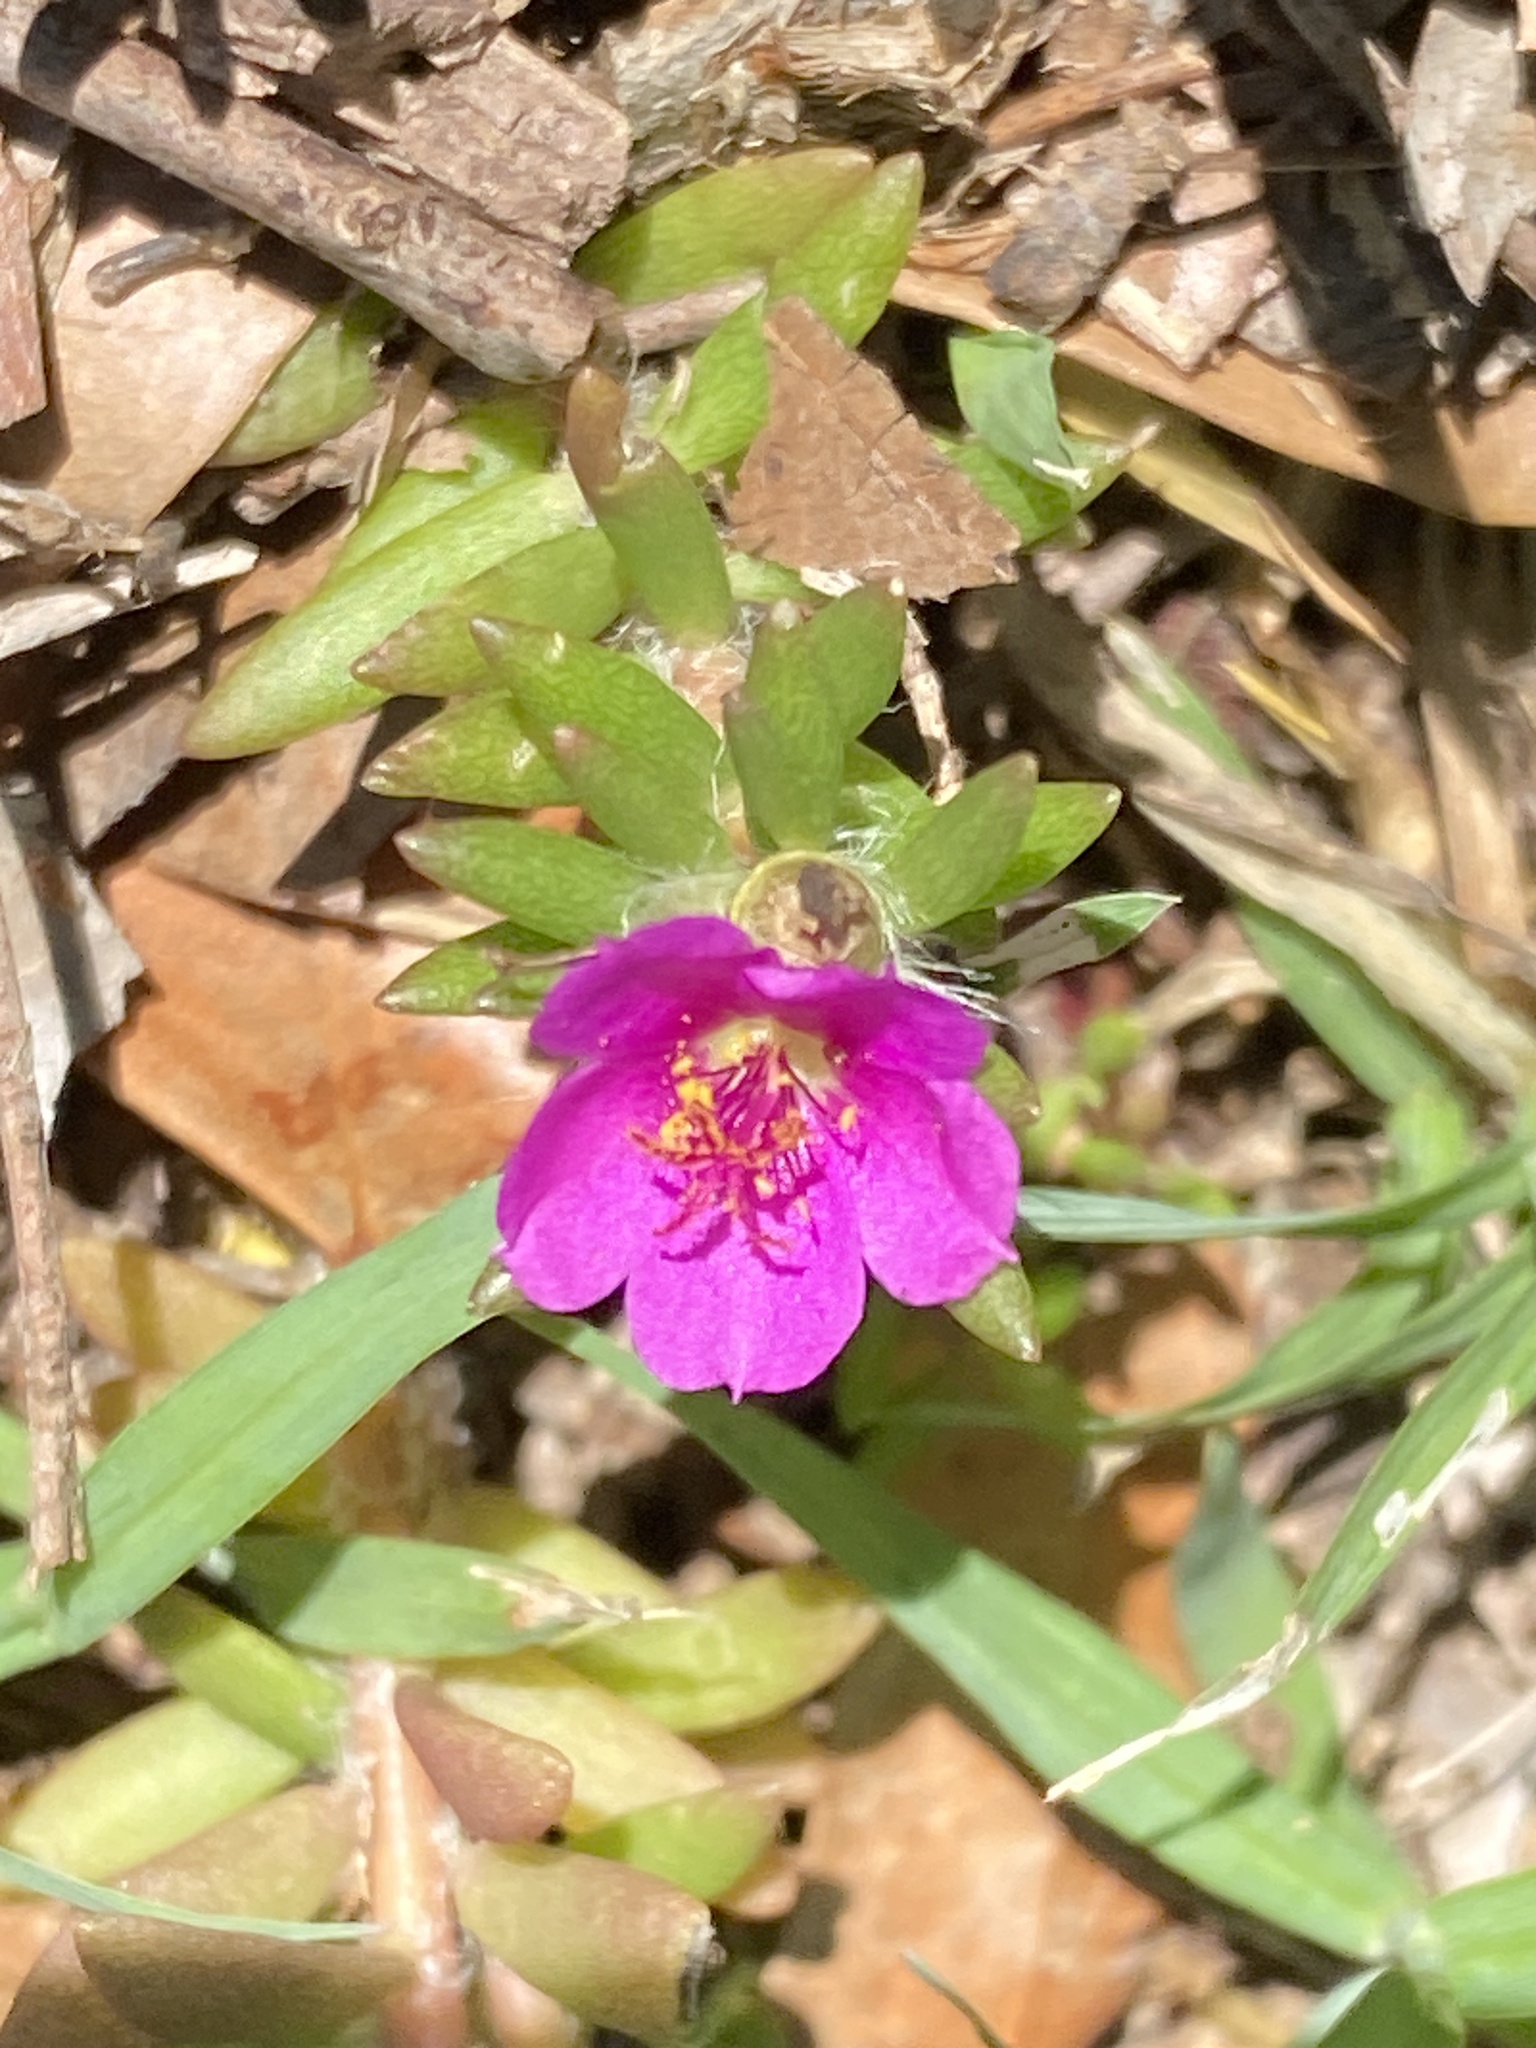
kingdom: Plantae
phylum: Tracheophyta
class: Magnoliopsida
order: Caryophyllales
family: Portulacaceae
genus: Portulaca
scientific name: Portulaca pilosa
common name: Kiss me quick
